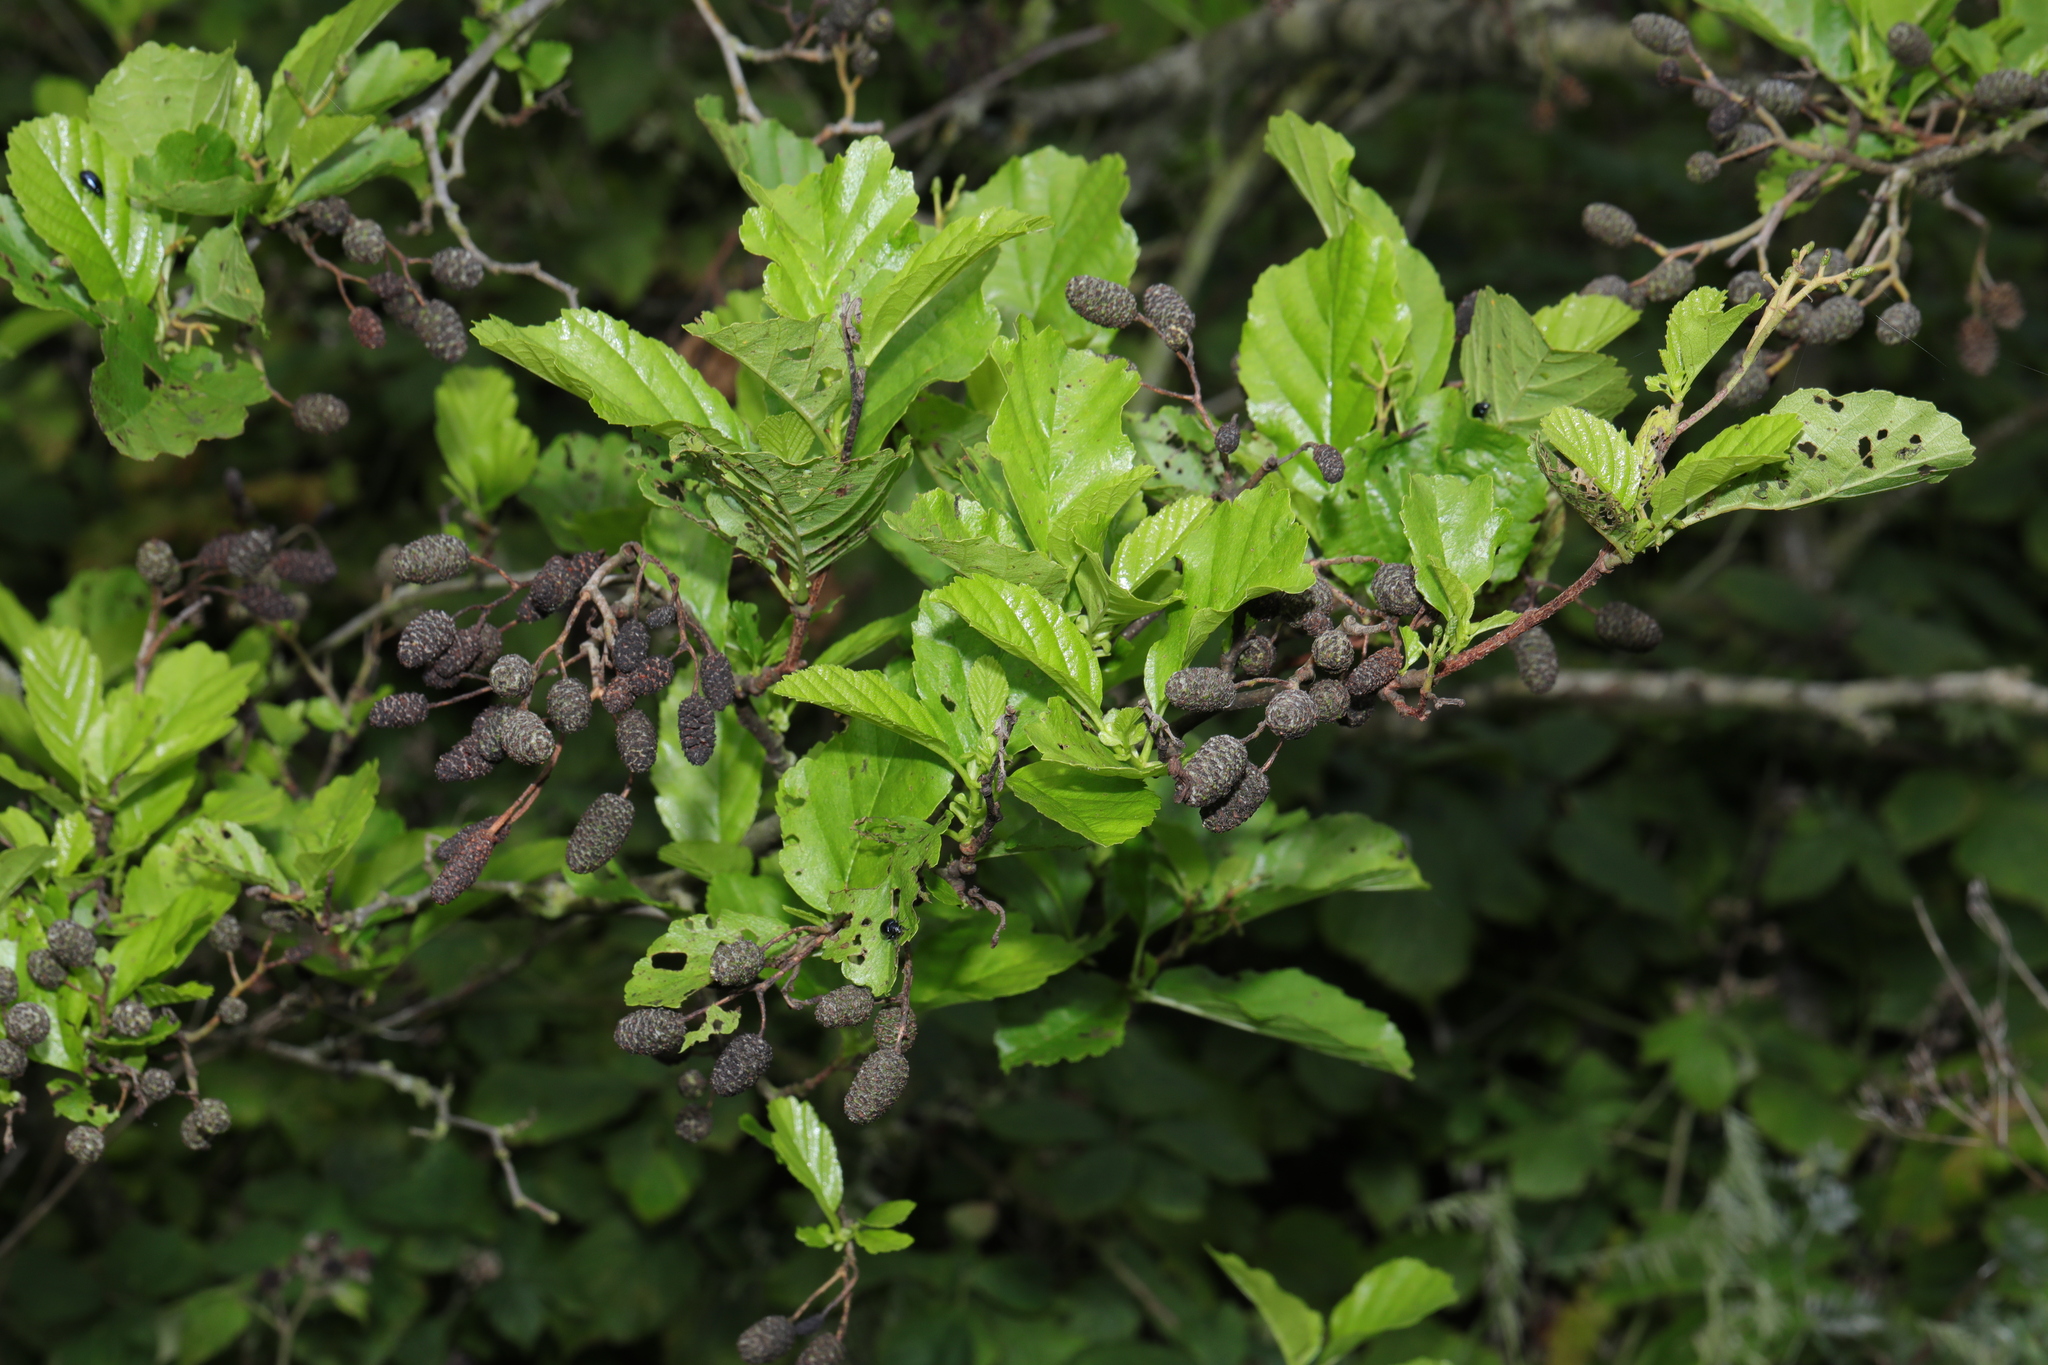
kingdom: Plantae
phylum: Tracheophyta
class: Magnoliopsida
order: Fagales
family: Betulaceae
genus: Alnus
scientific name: Alnus glutinosa
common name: Black alder
